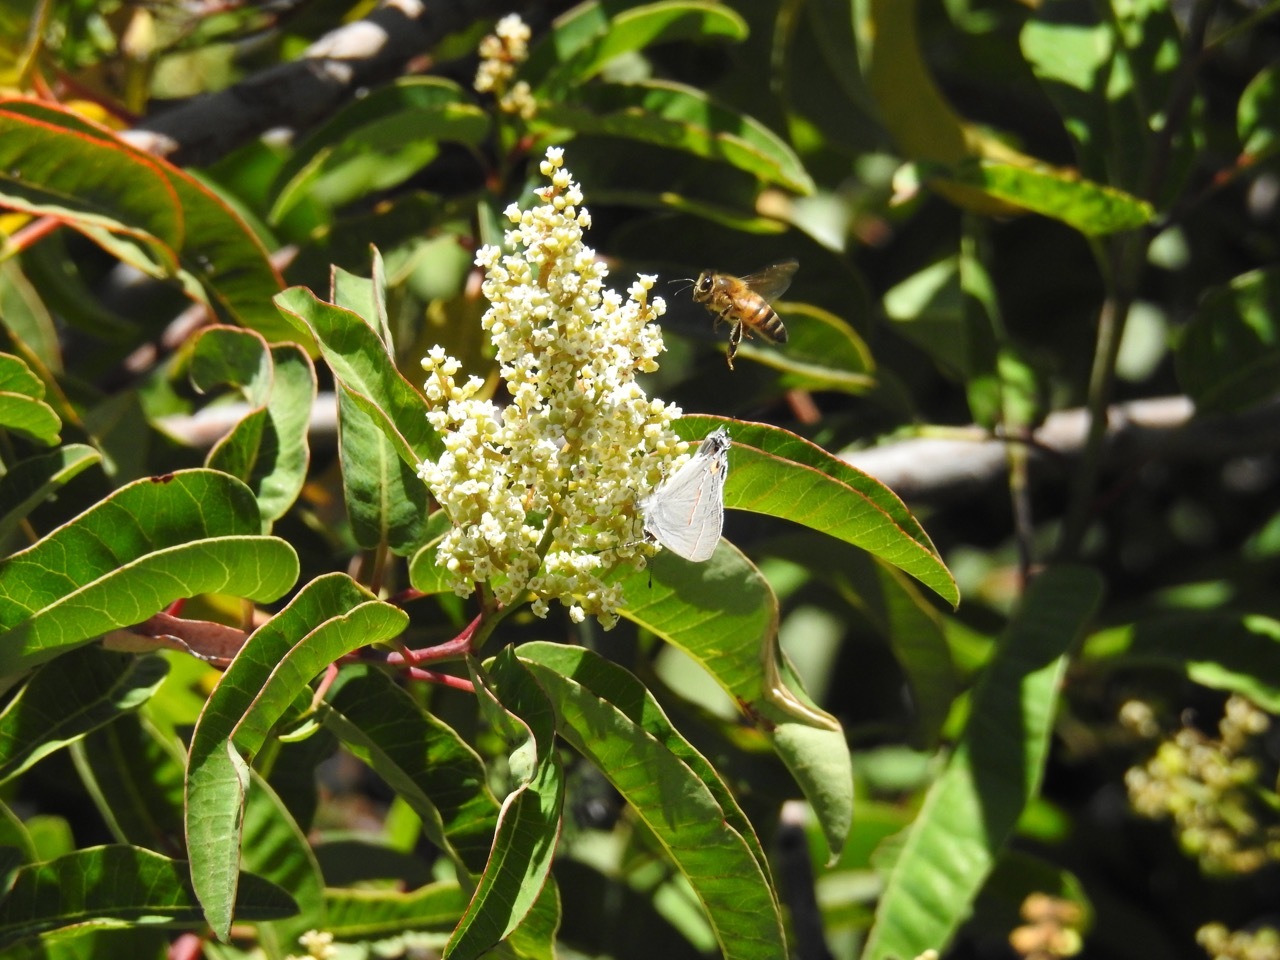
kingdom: Animalia
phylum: Arthropoda
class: Insecta
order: Lepidoptera
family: Lycaenidae
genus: Strymon
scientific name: Strymon melinus
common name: Gray hairstreak
